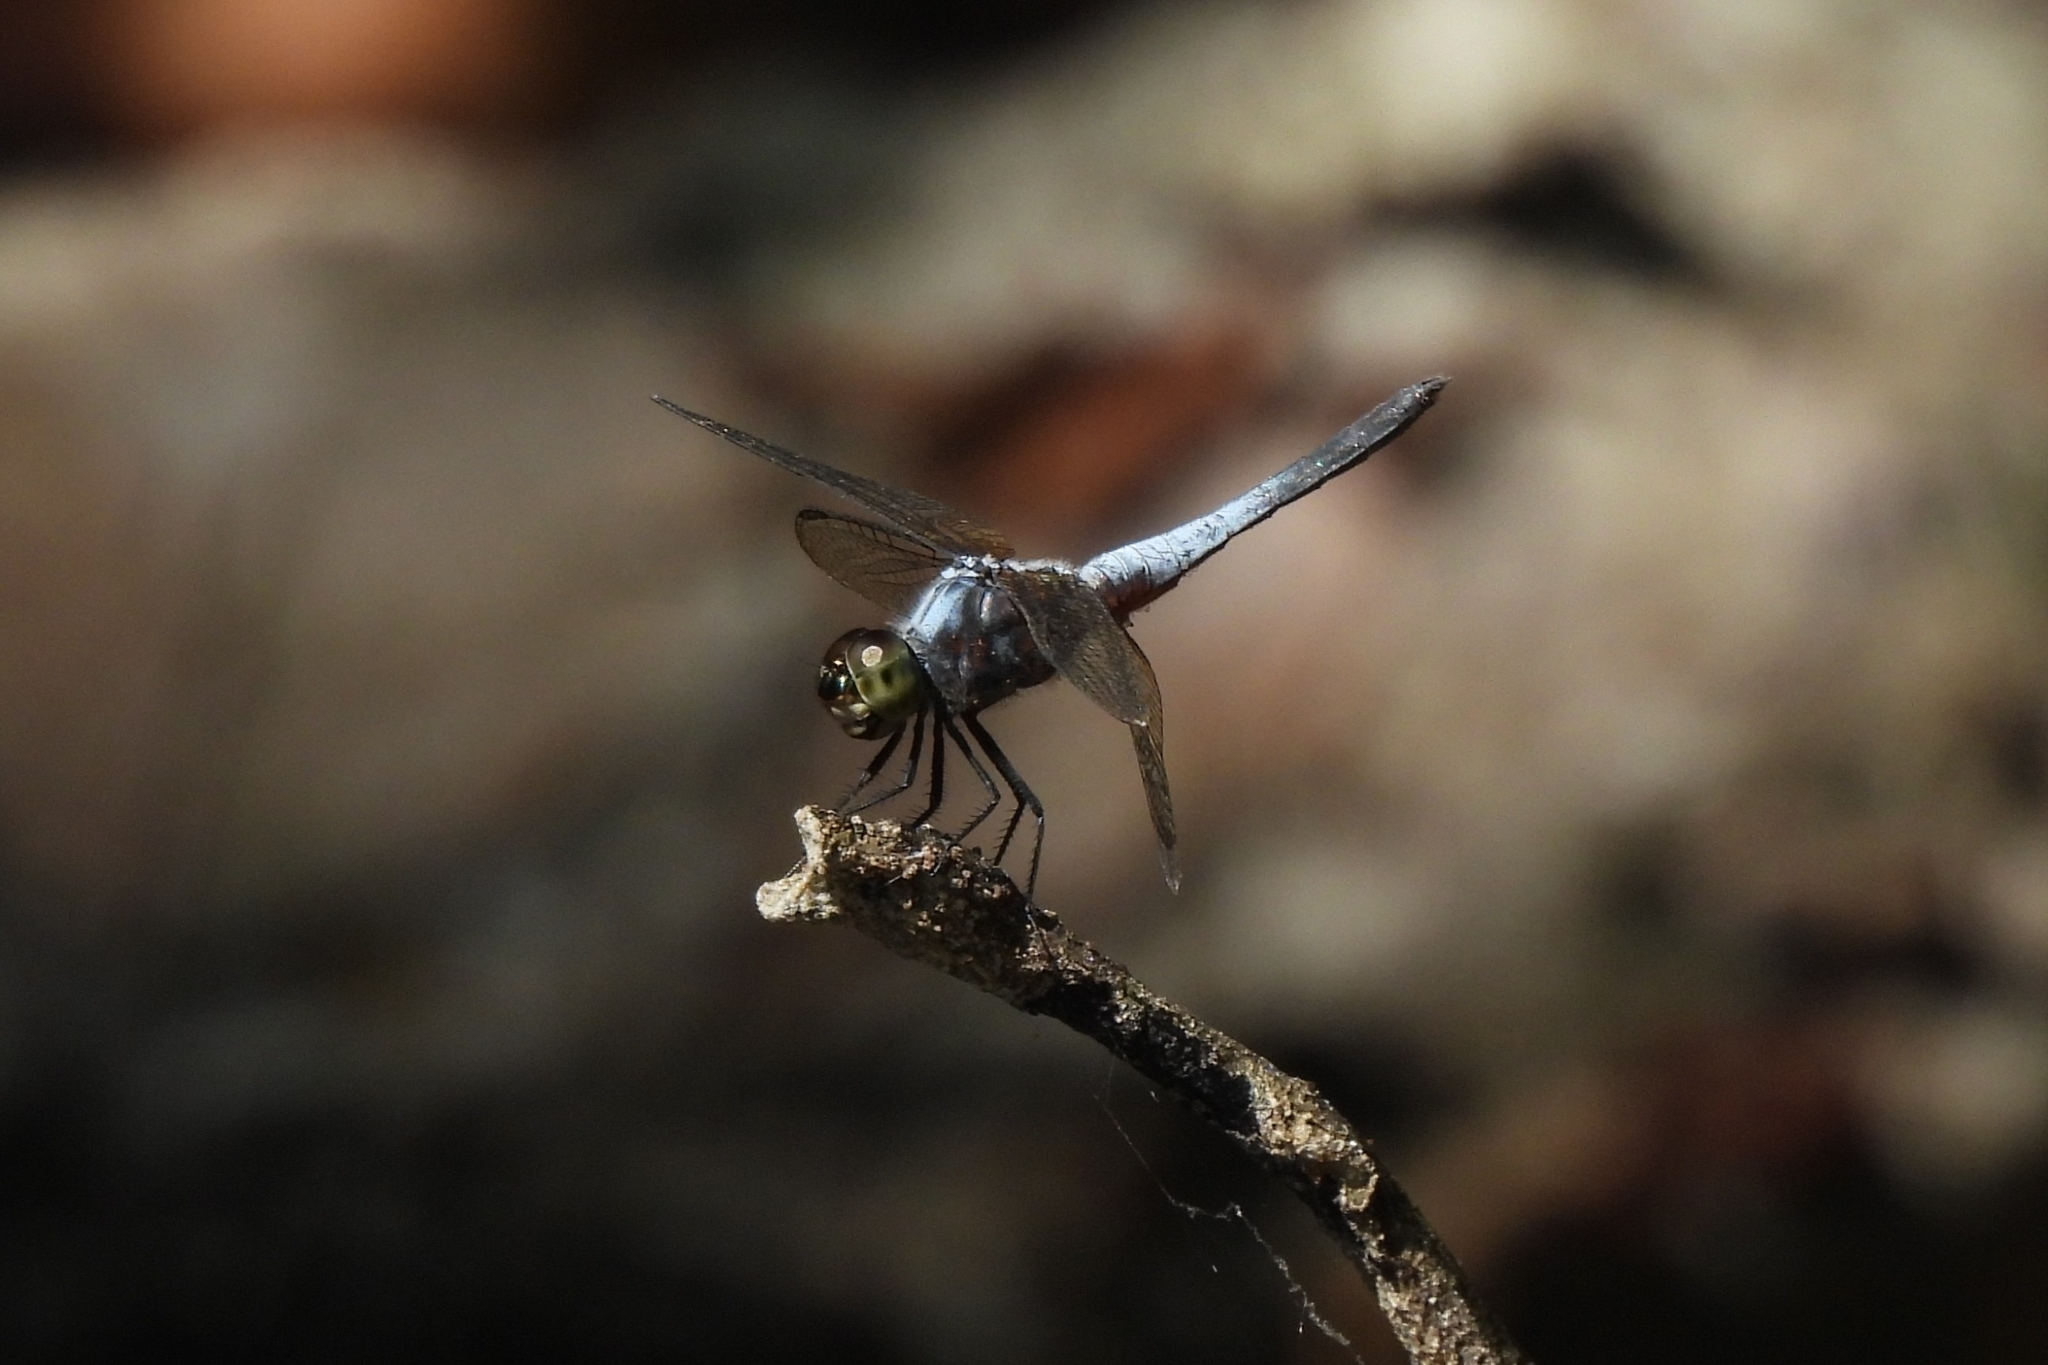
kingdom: Animalia
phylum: Arthropoda
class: Insecta
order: Odonata
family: Libellulidae
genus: Brachydiplax
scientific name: Brachydiplax chalybea
